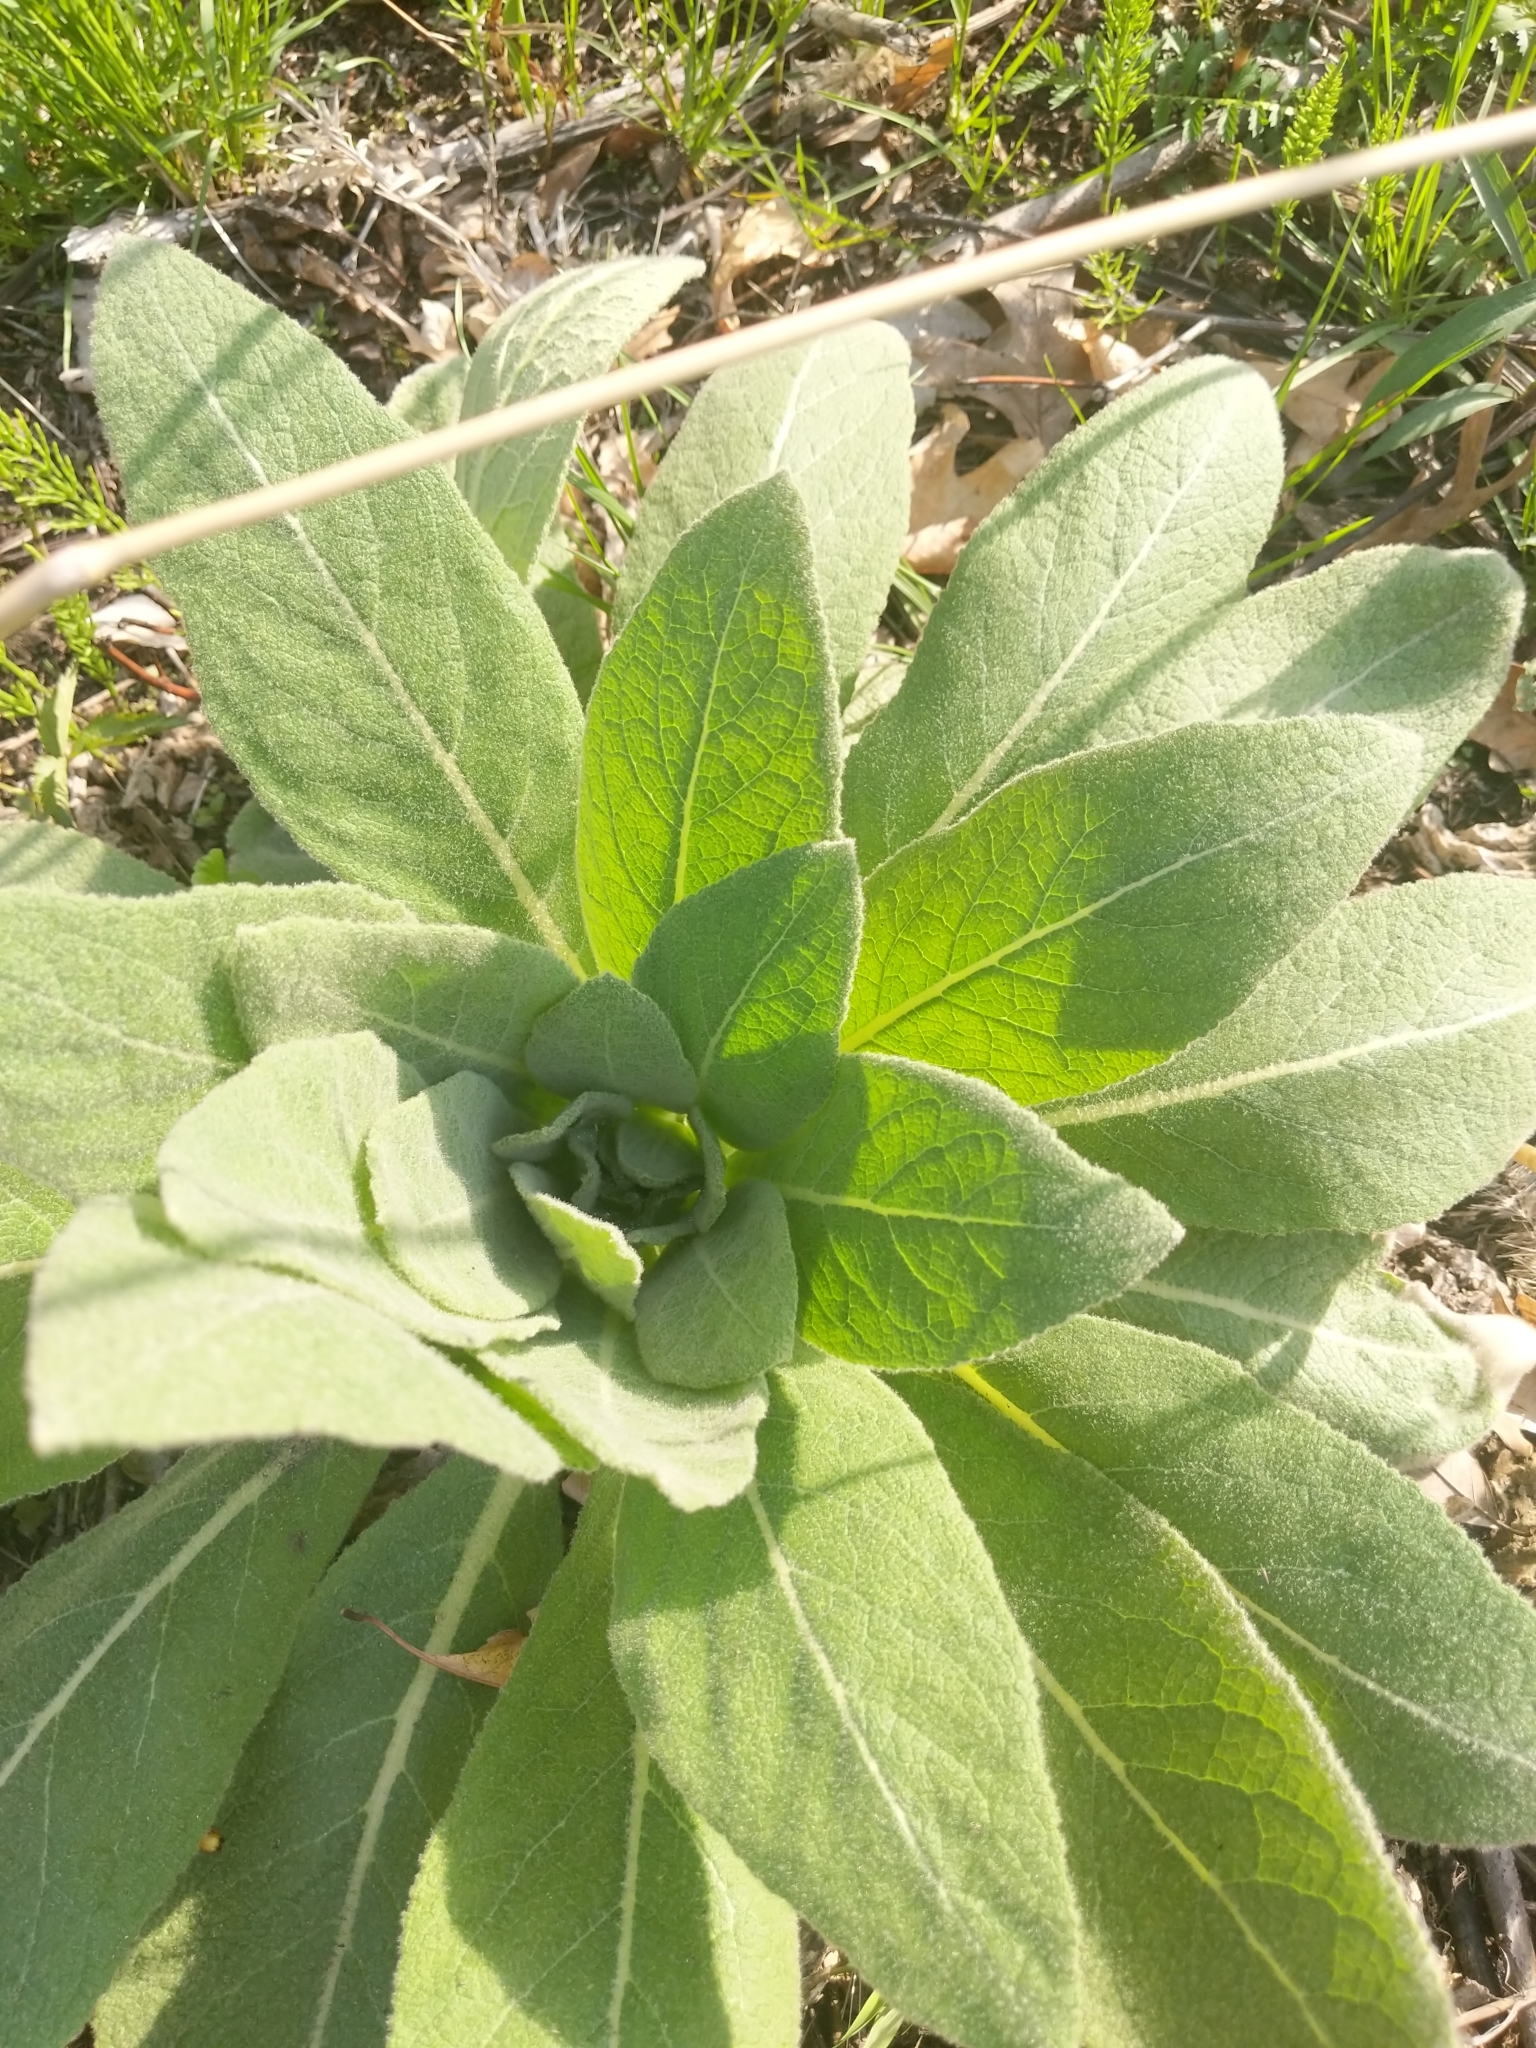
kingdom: Plantae
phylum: Tracheophyta
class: Magnoliopsida
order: Lamiales
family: Scrophulariaceae
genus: Verbascum
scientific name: Verbascum thapsus
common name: Common mullein
